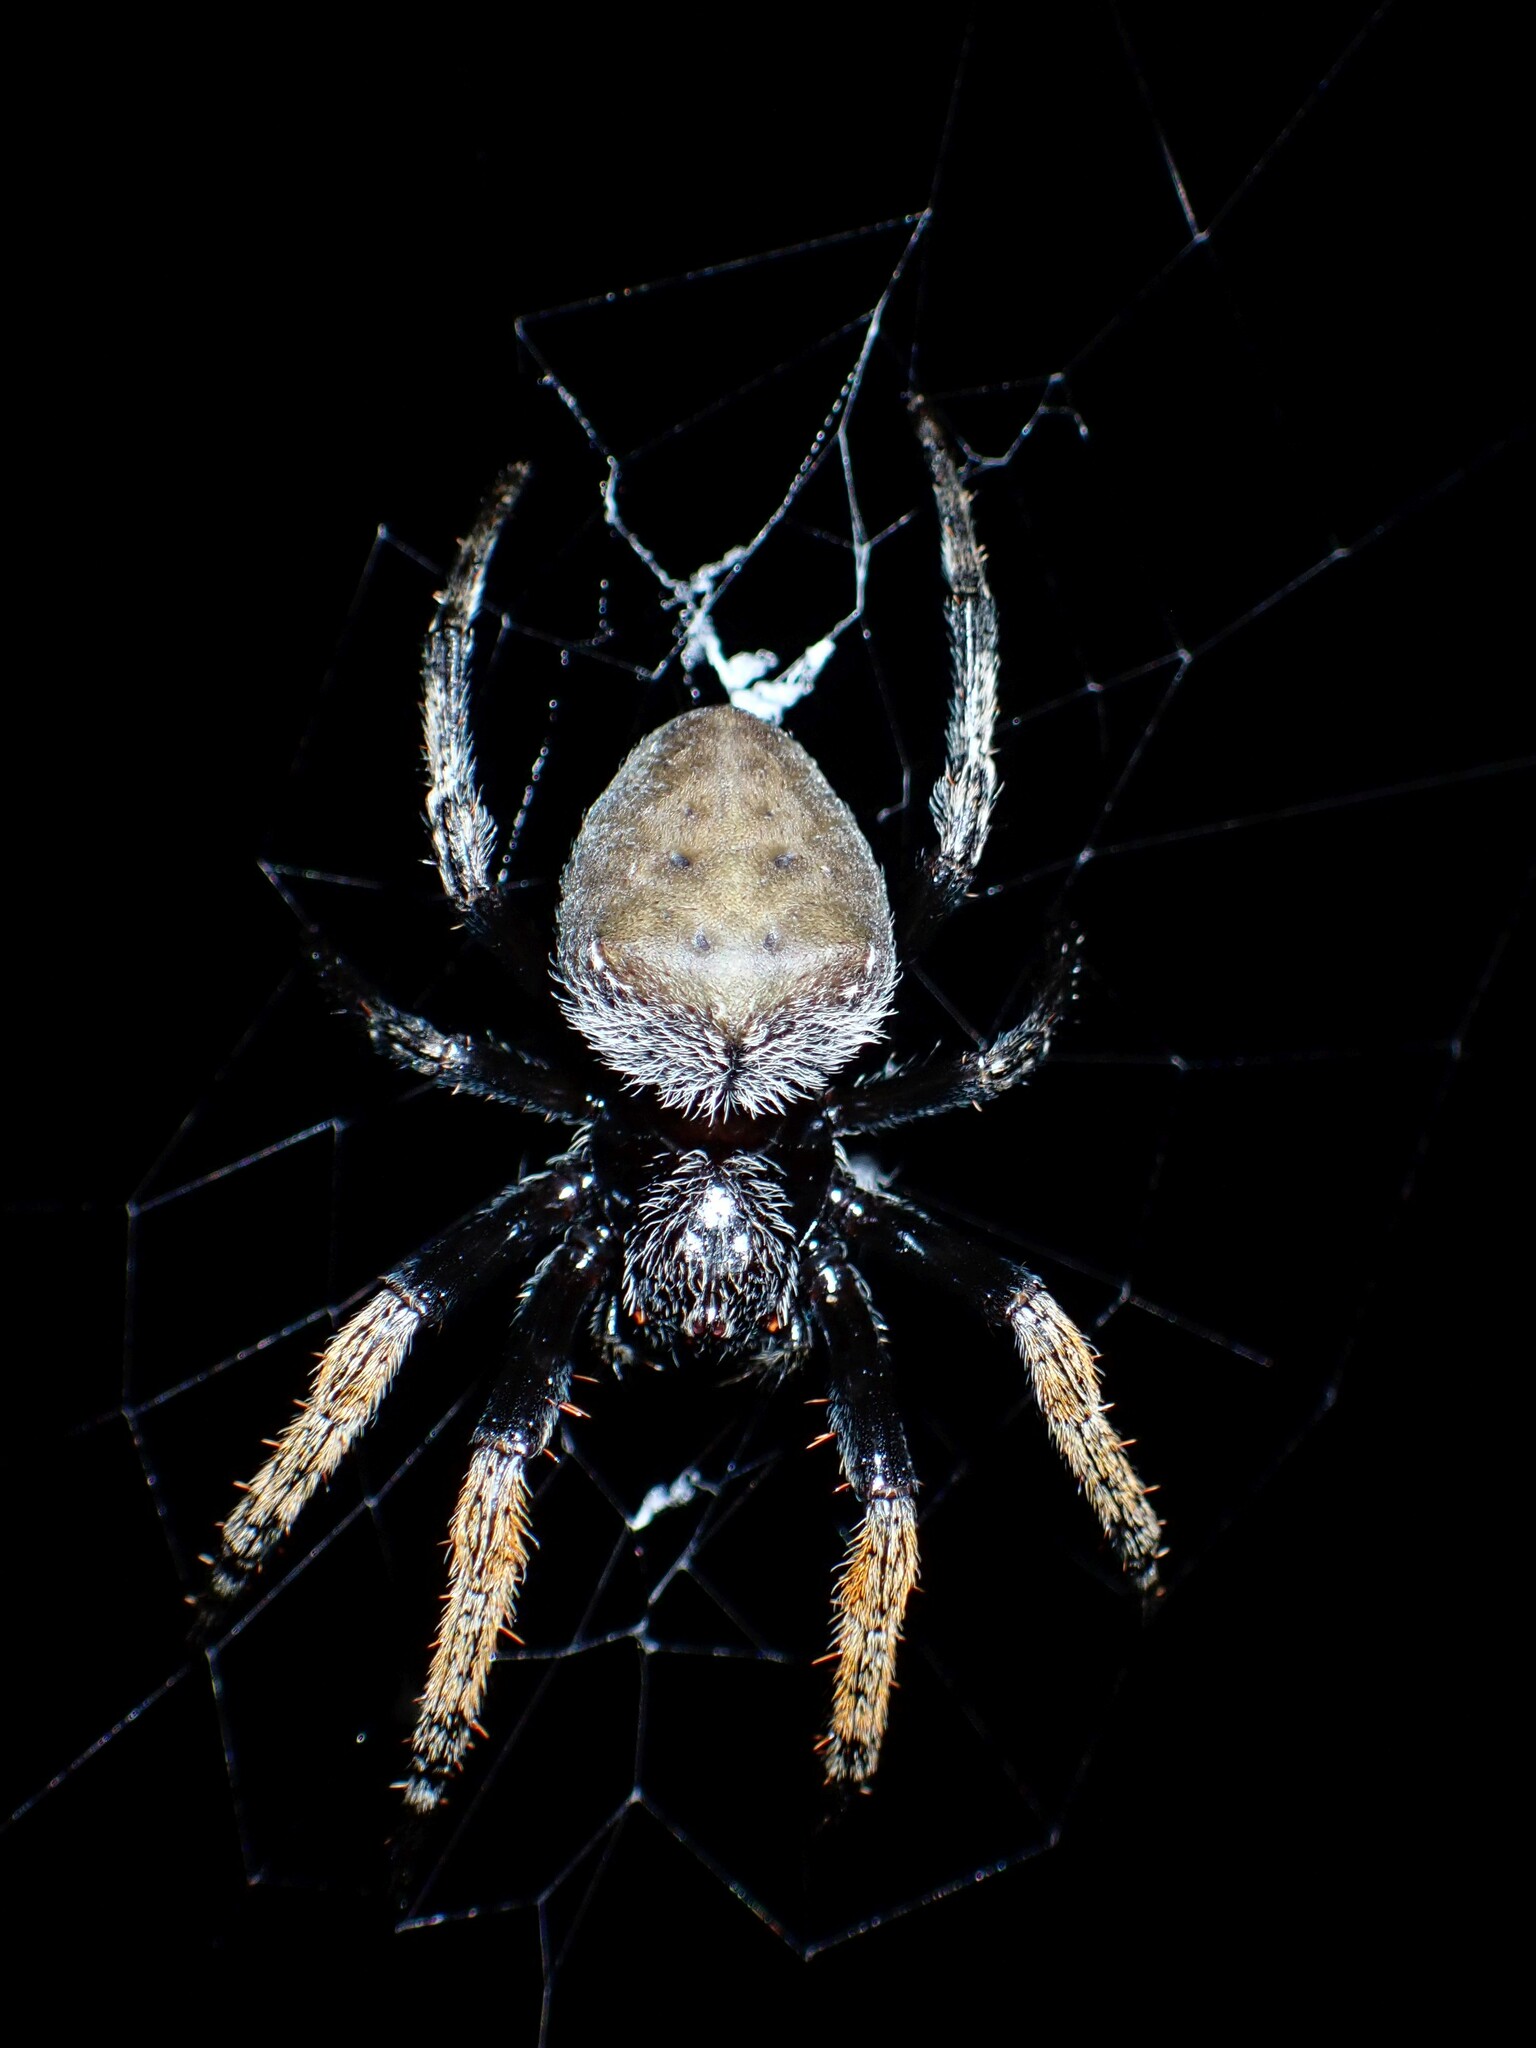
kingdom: Animalia
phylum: Arthropoda
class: Arachnida
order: Araneae
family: Araneidae
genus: Hortophora
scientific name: Hortophora capitalis
